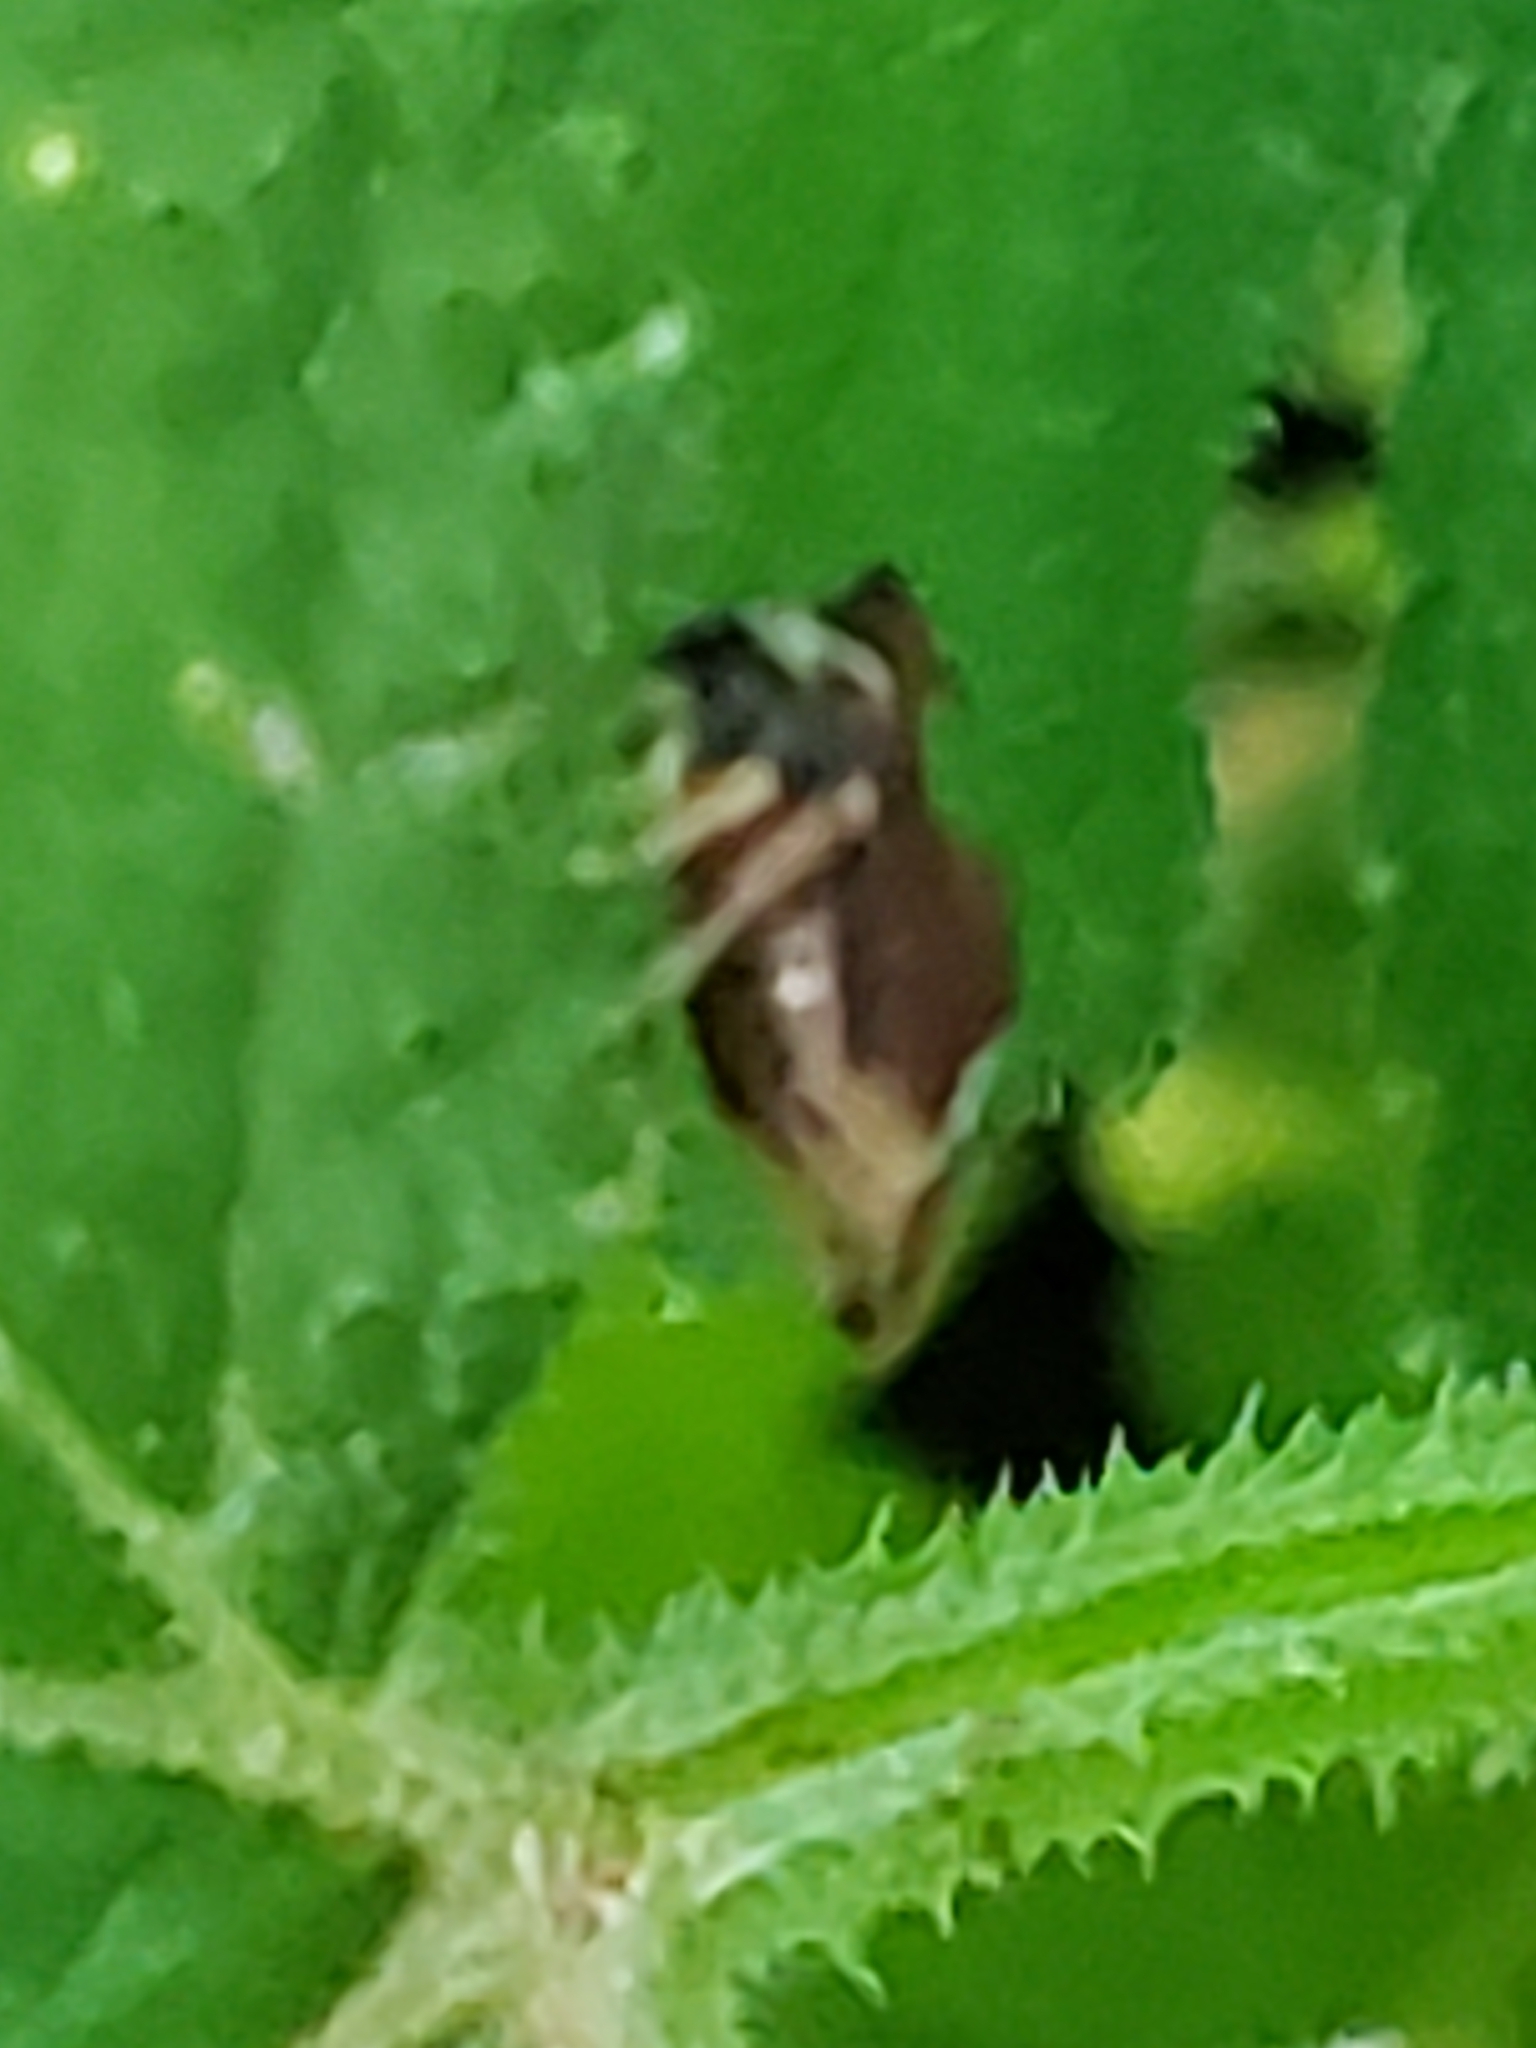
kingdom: Animalia
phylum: Arthropoda
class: Insecta
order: Hemiptera
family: Membracidae
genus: Entylia
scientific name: Entylia carinata
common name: Keeled treehopper
